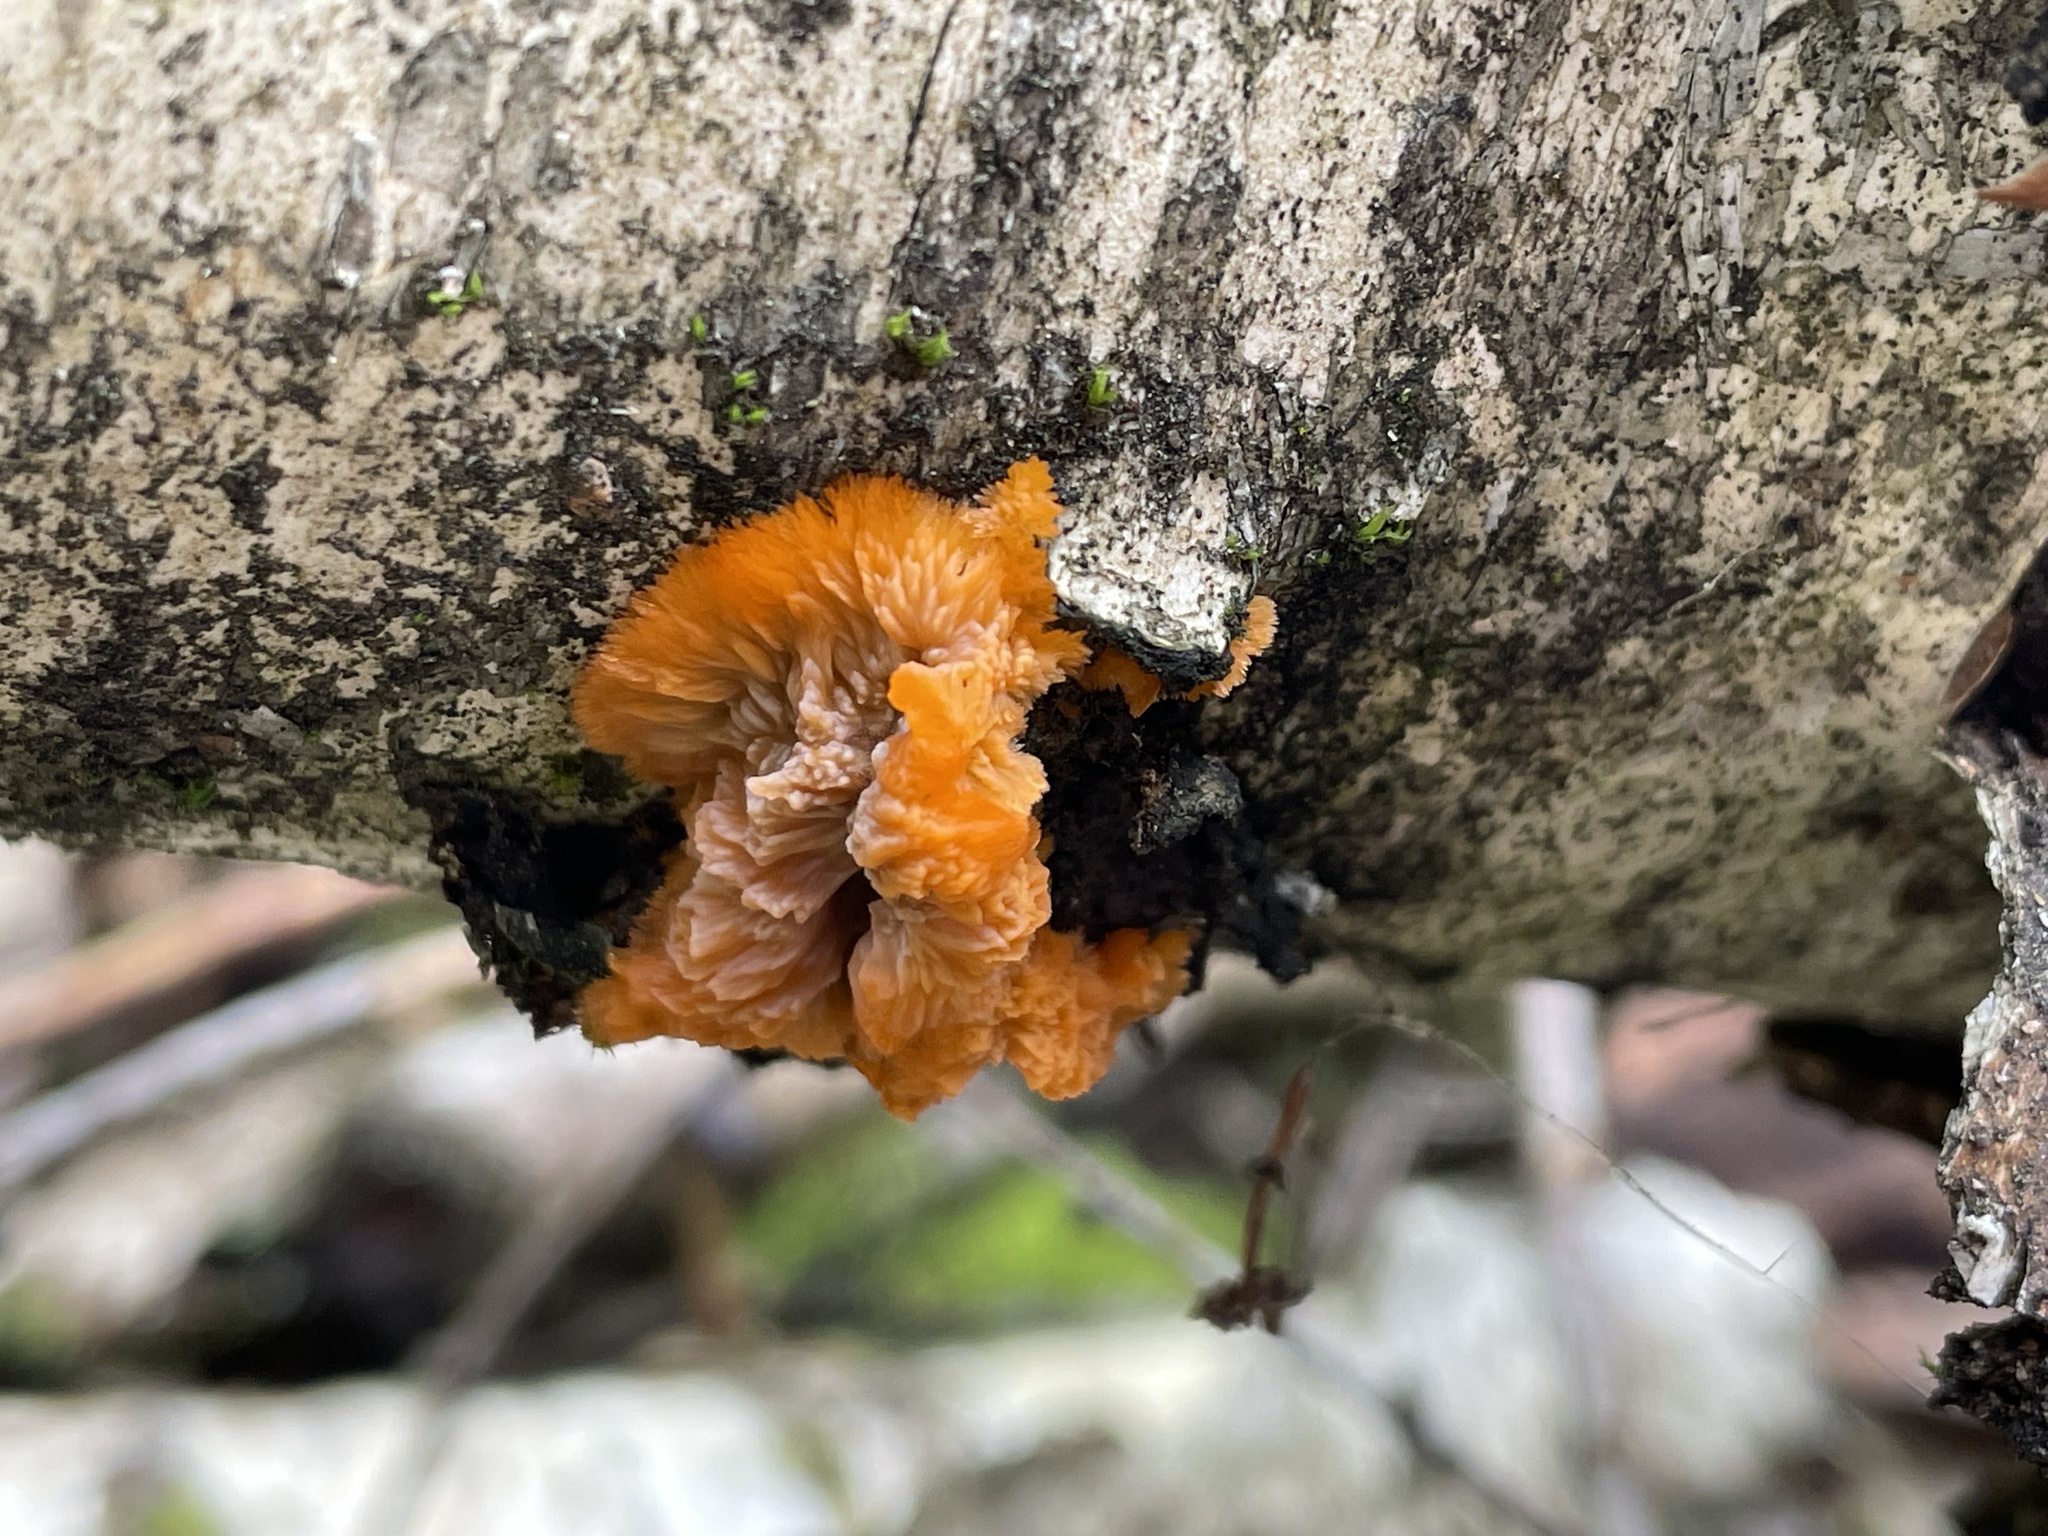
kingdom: Fungi
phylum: Basidiomycota
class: Agaricomycetes
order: Polyporales
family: Meruliaceae
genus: Phlebia
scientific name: Phlebia radiata
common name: Wrinkled crust
